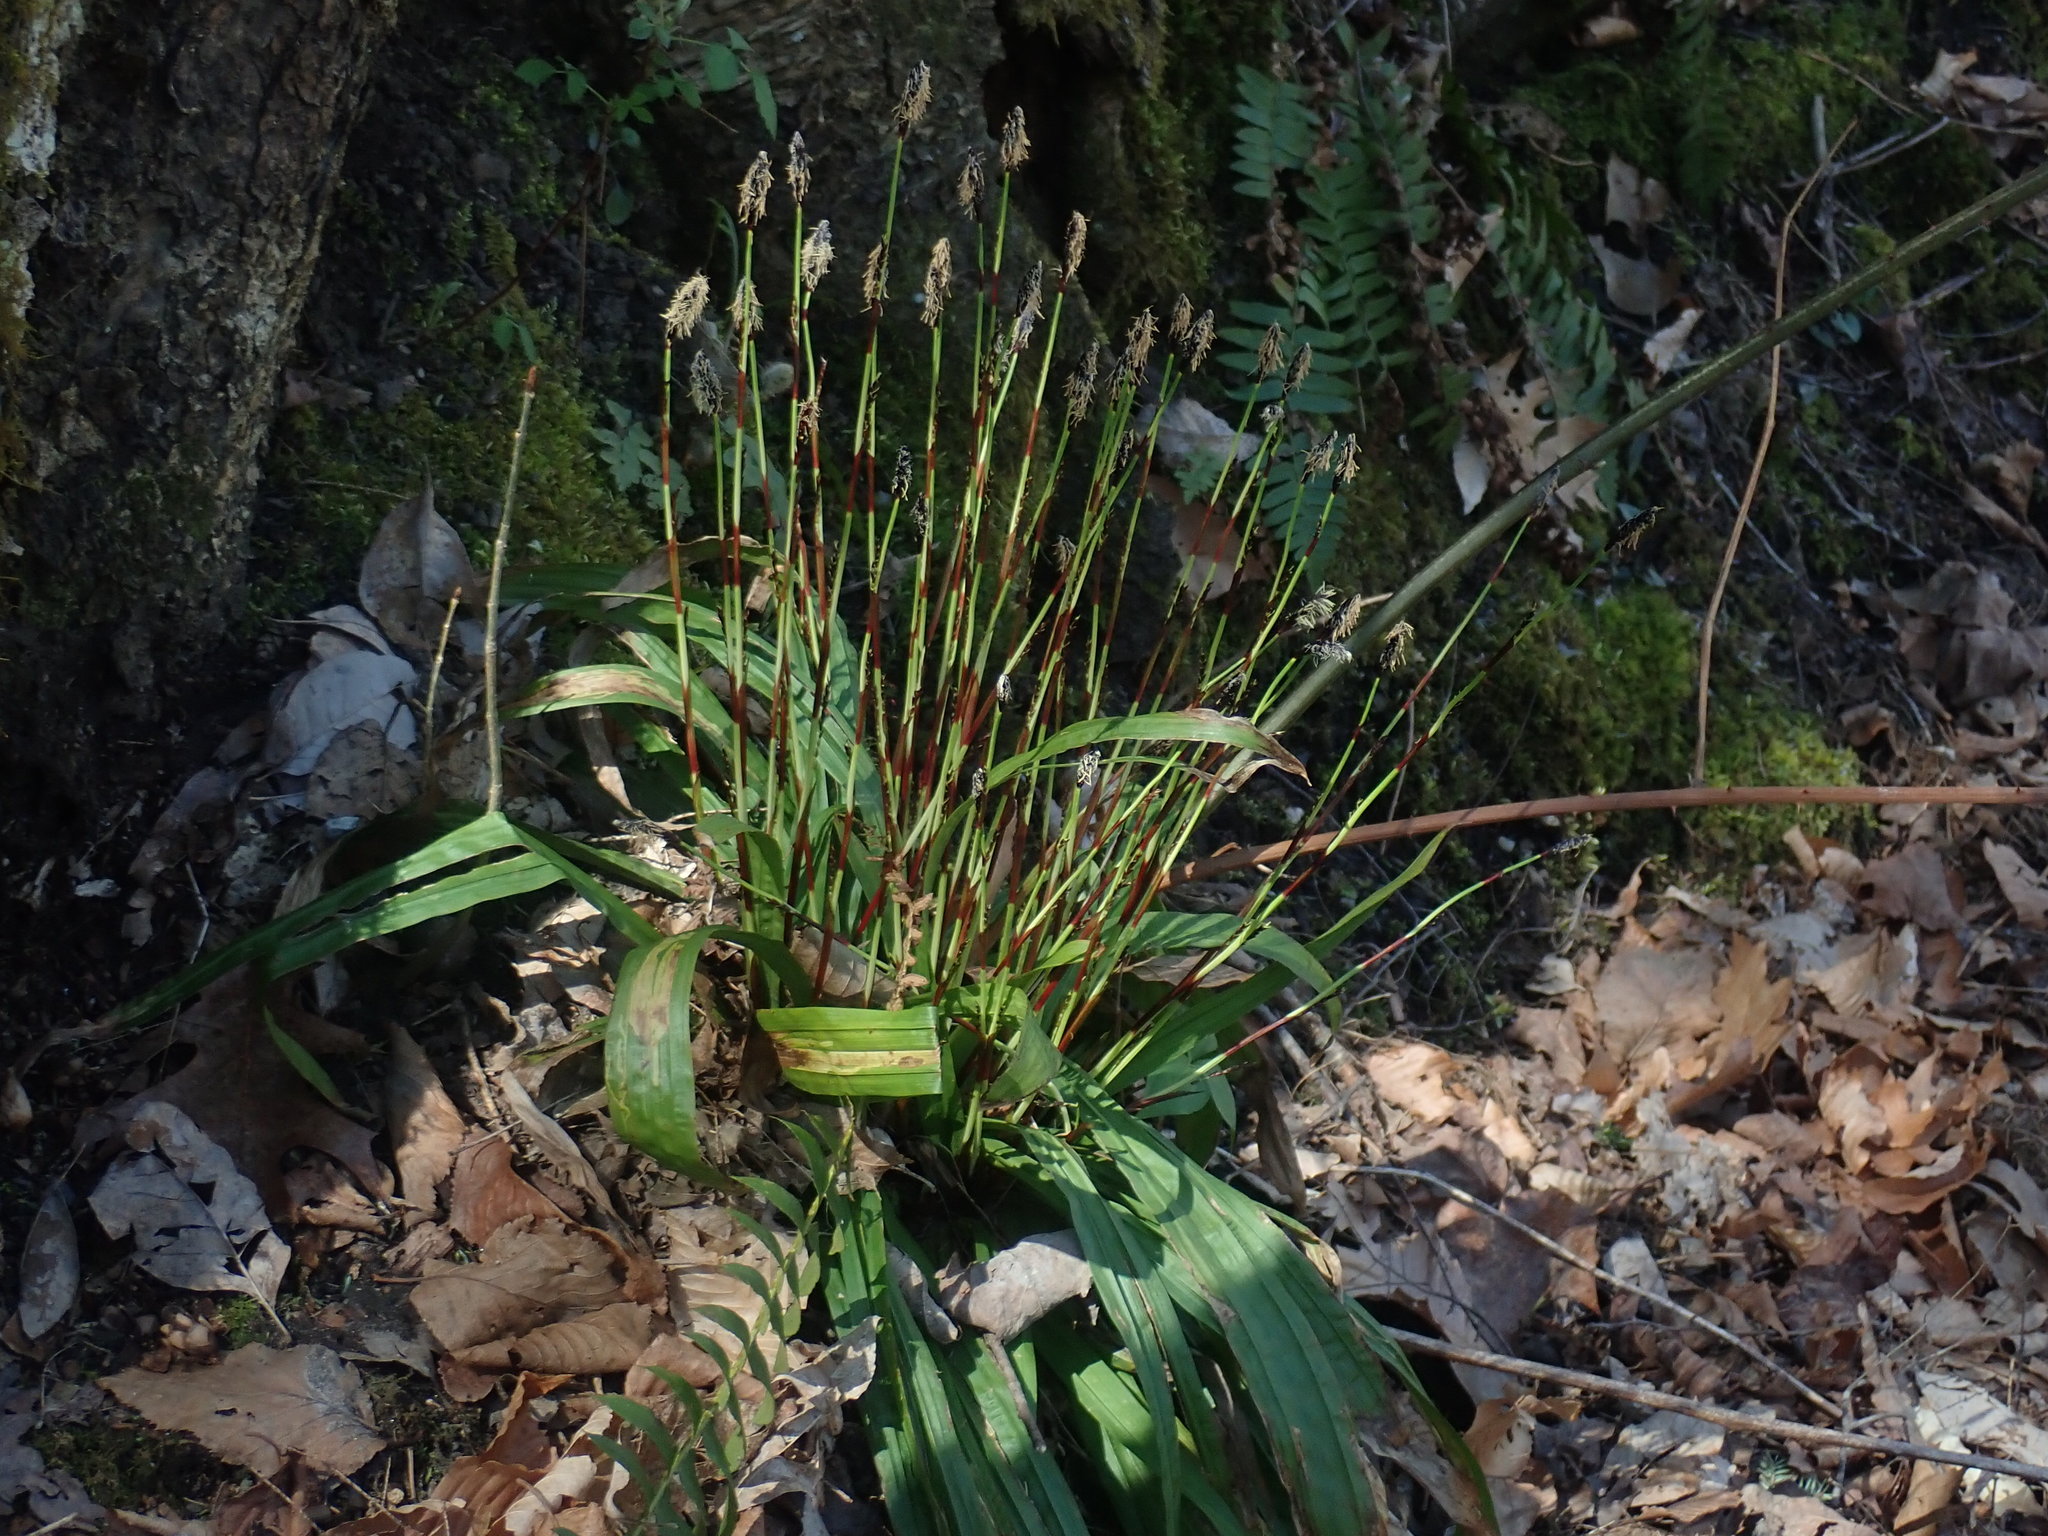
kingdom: Plantae
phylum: Tracheophyta
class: Liliopsida
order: Poales
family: Cyperaceae
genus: Carex
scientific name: Carex plantaginea
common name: Plantain-leaved sedge
